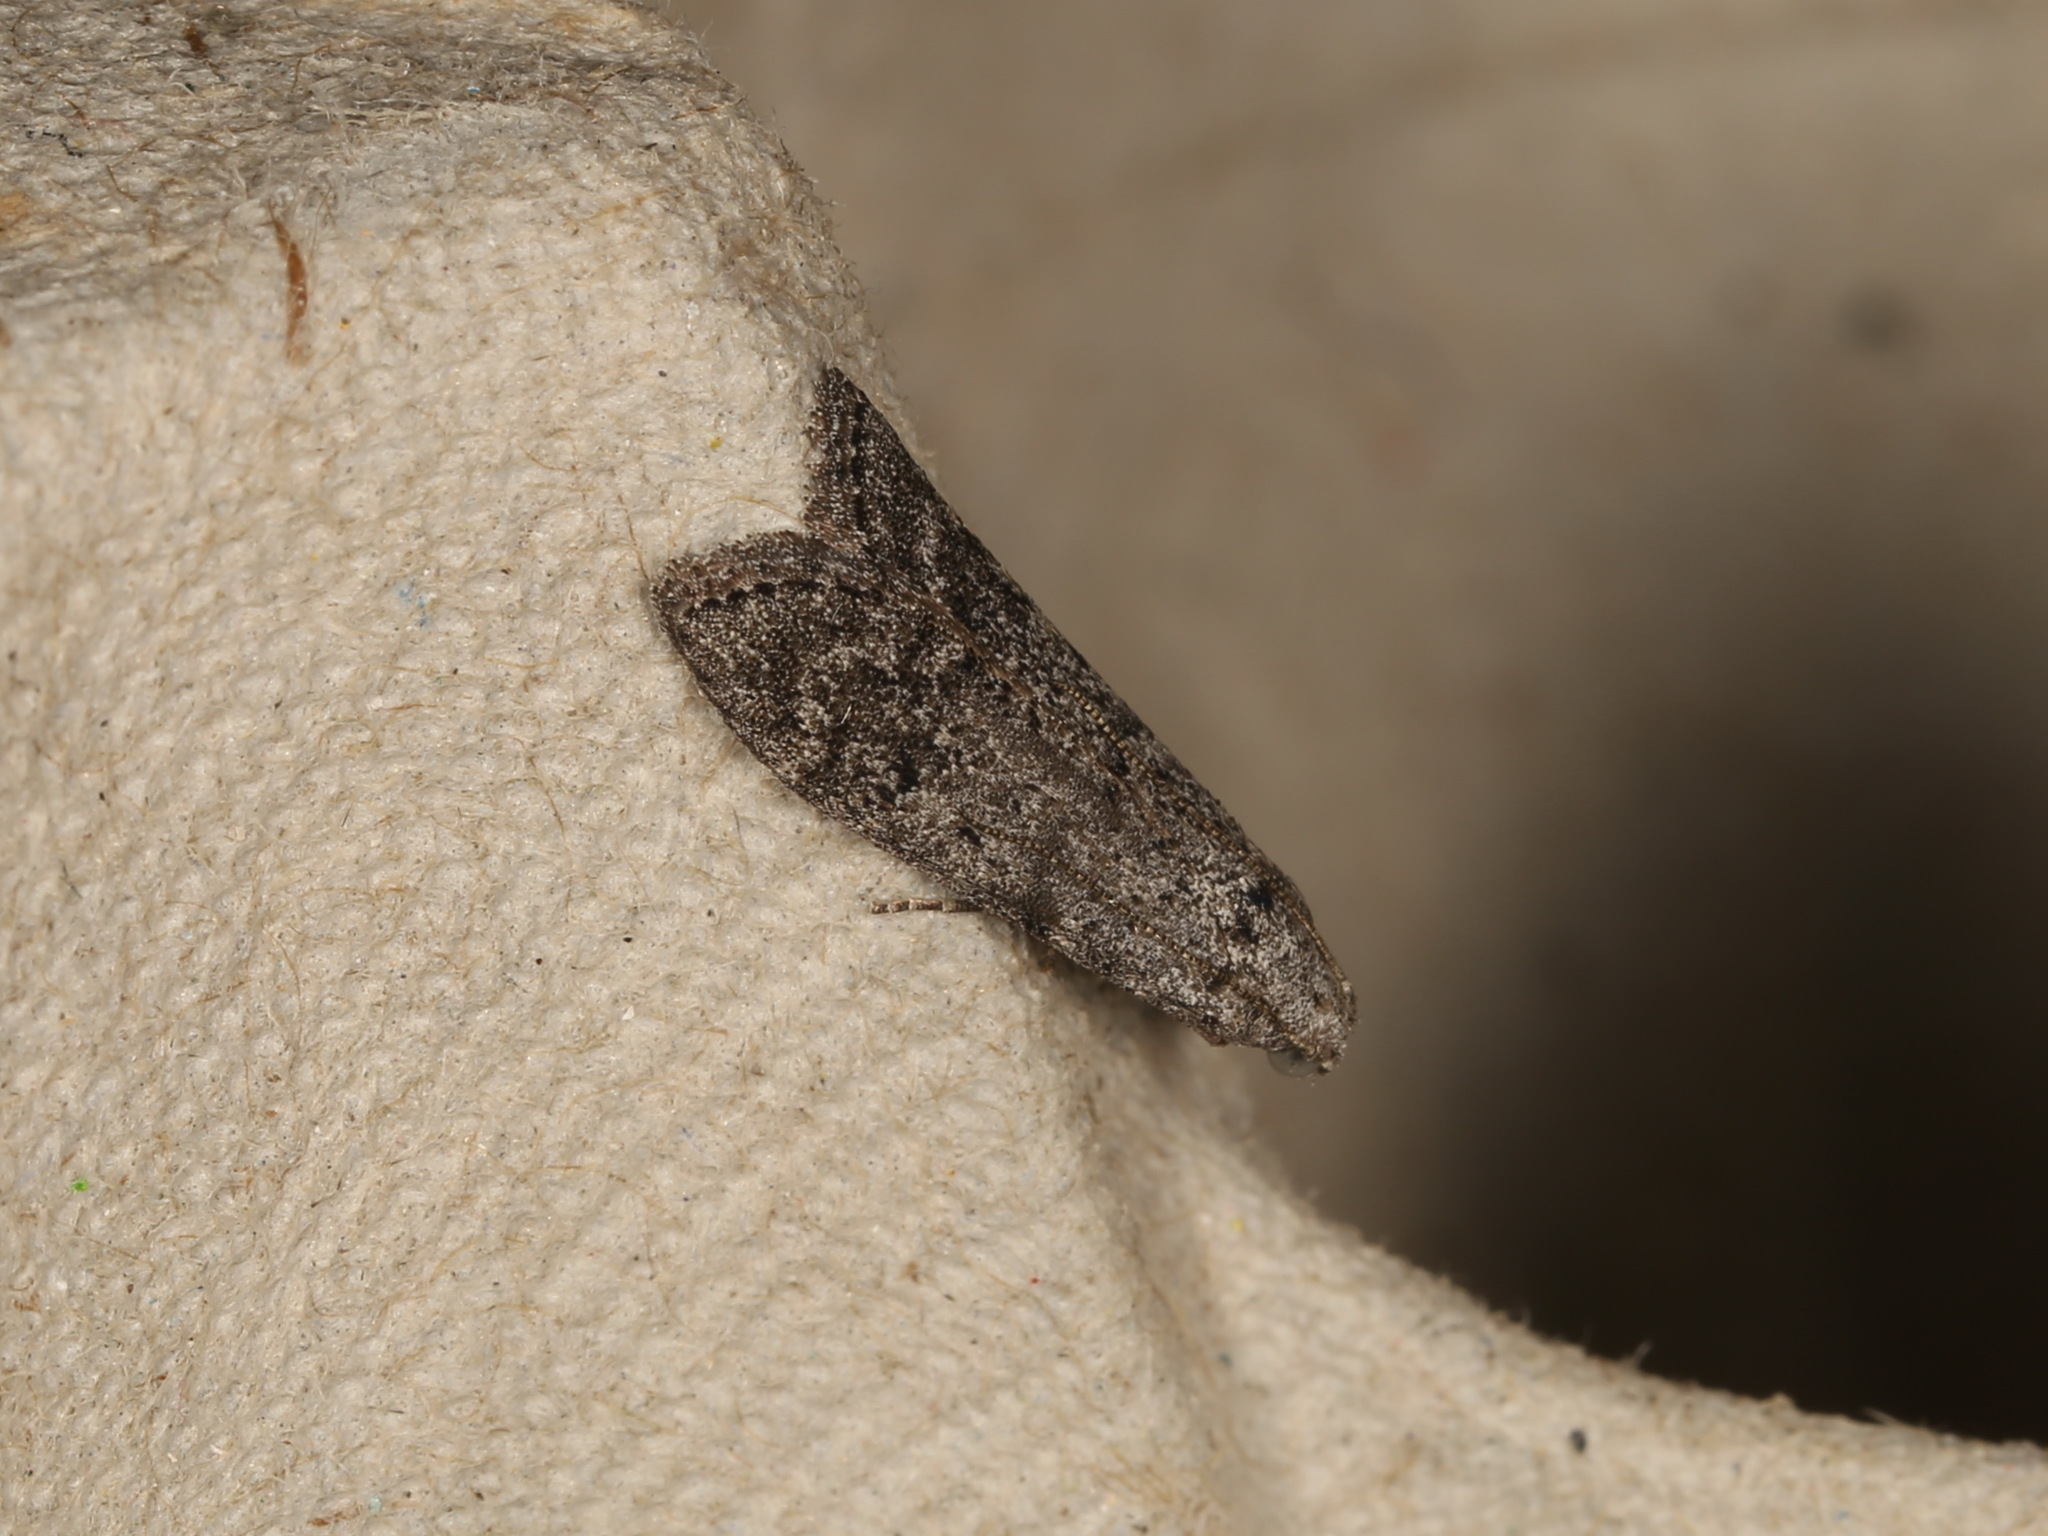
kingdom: Animalia
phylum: Arthropoda
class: Insecta
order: Lepidoptera
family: Pyralidae
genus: Heteromicta
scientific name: Heteromicta pachytera
